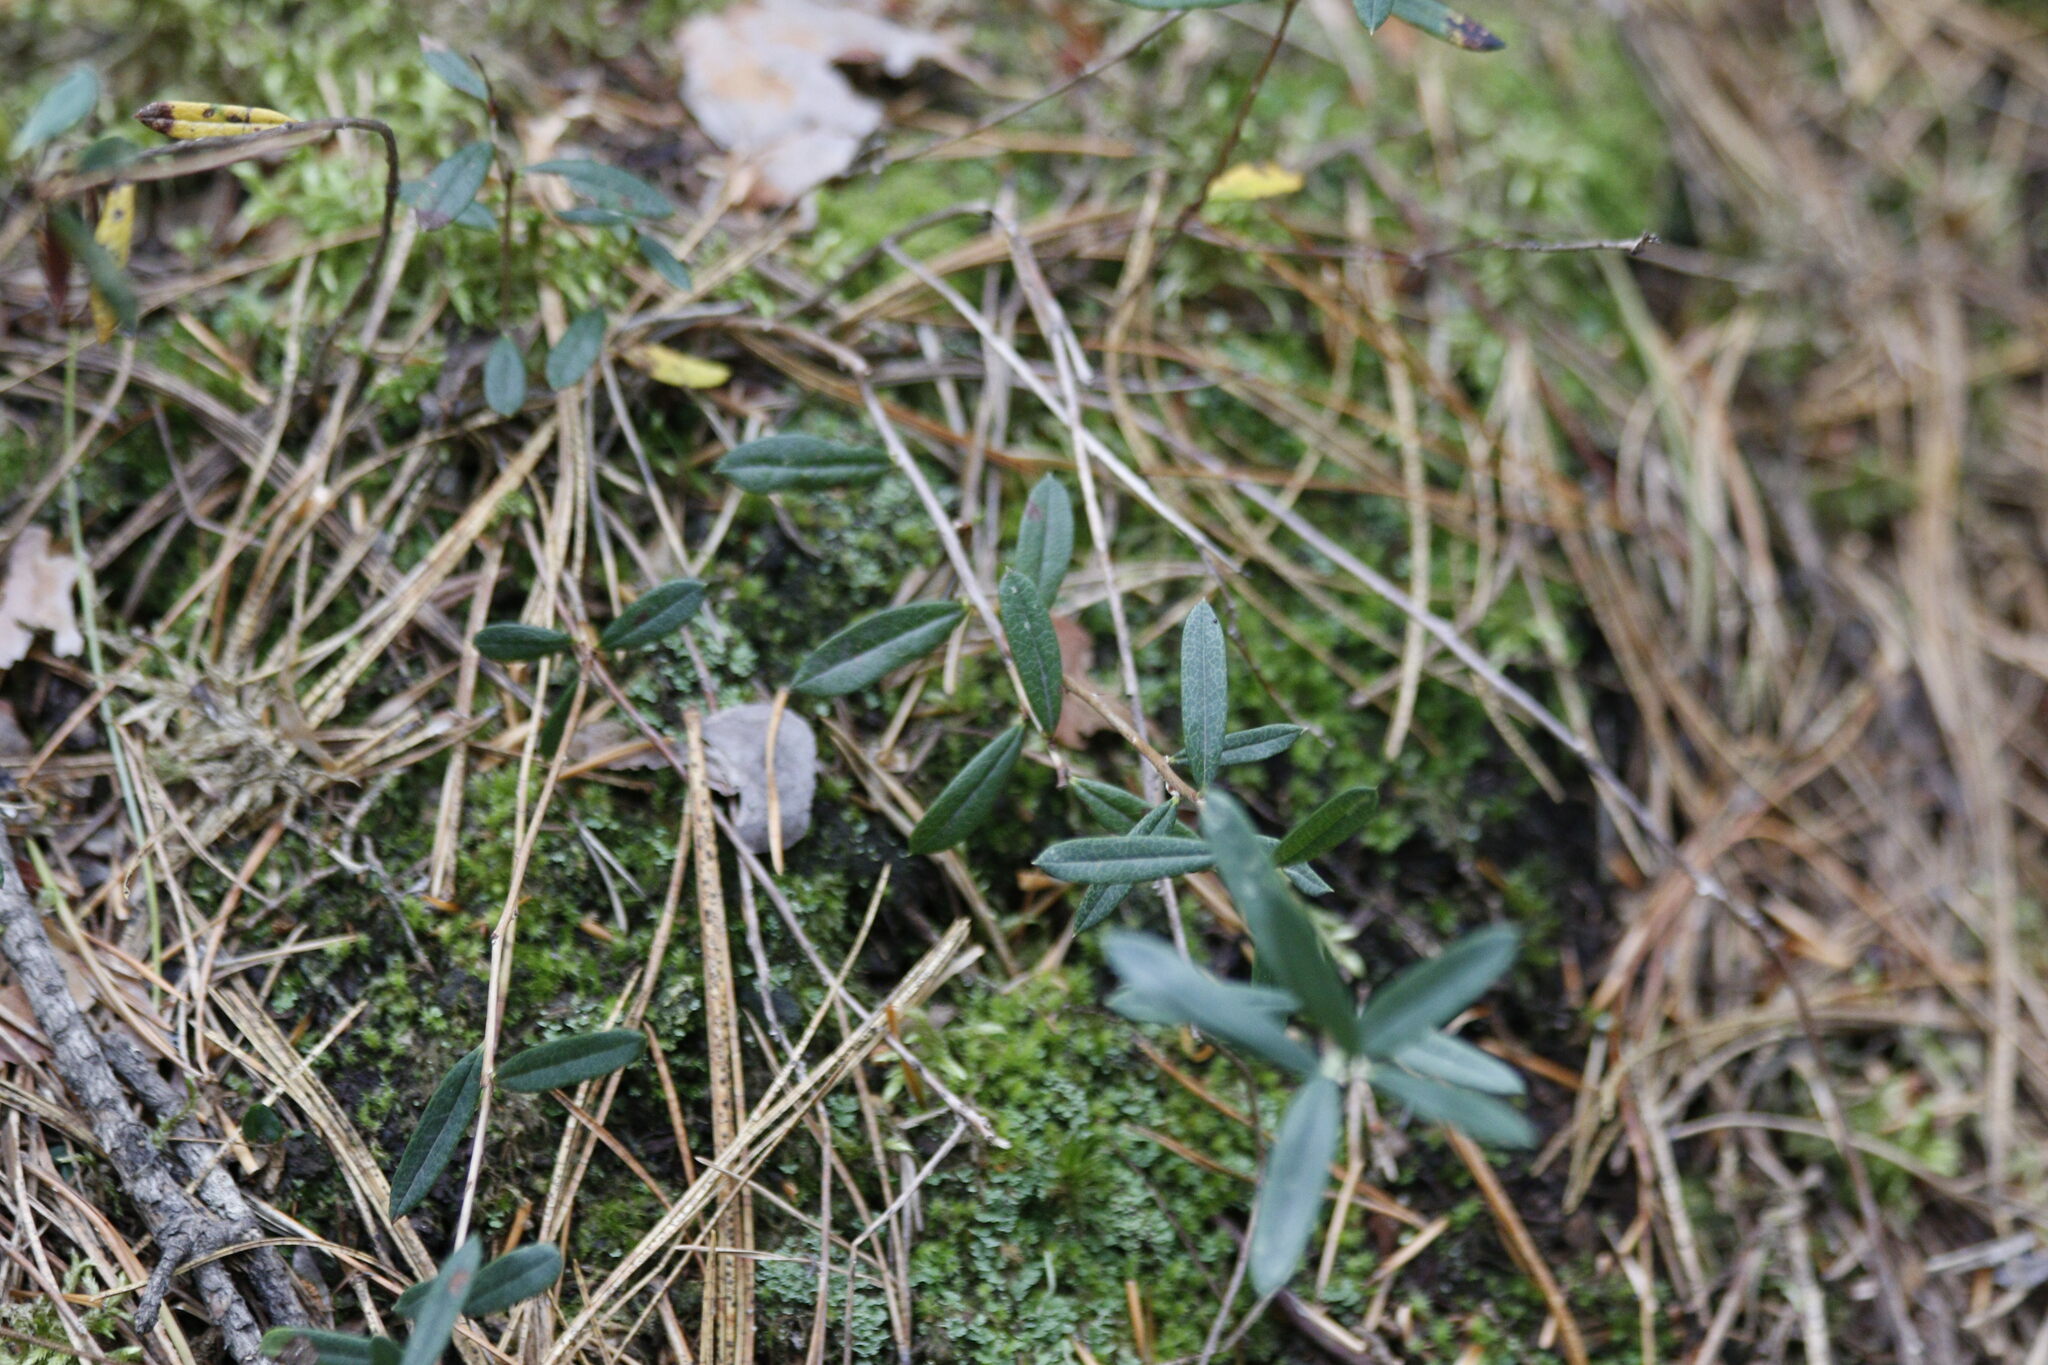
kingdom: Plantae
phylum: Tracheophyta
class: Magnoliopsida
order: Ericales
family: Ericaceae
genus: Andromeda
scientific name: Andromeda polifolia
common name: Bog-rosemary
